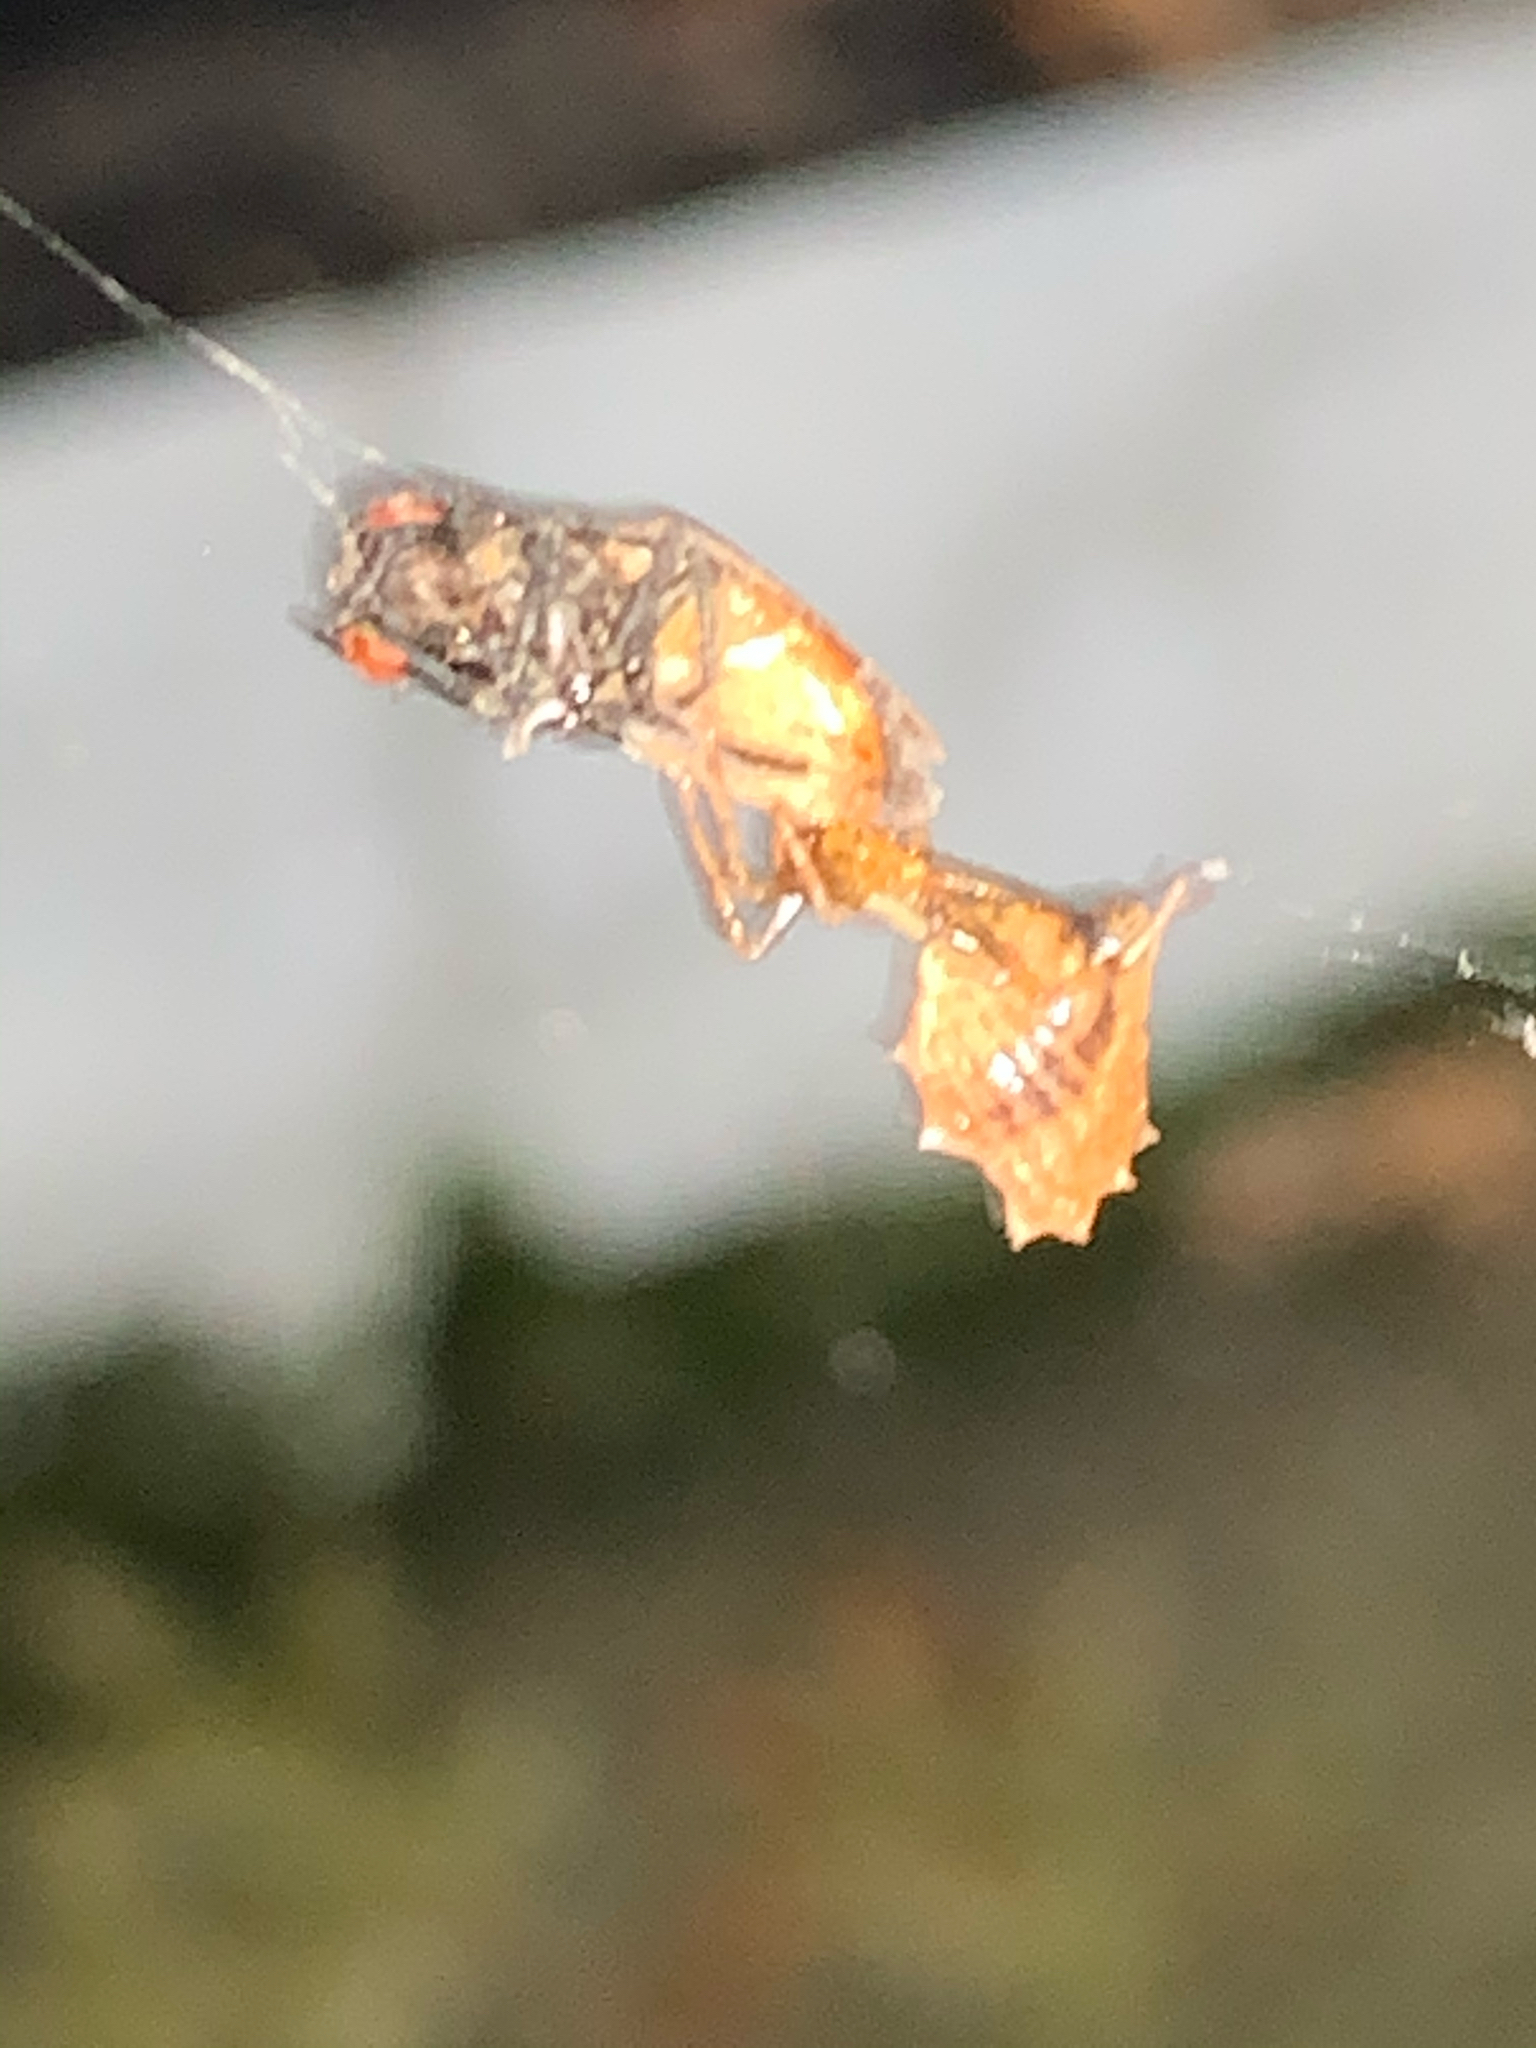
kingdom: Animalia
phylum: Arthropoda
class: Arachnida
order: Araneae
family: Araneidae
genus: Micrathena
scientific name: Micrathena gracilis
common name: Orb weavers
